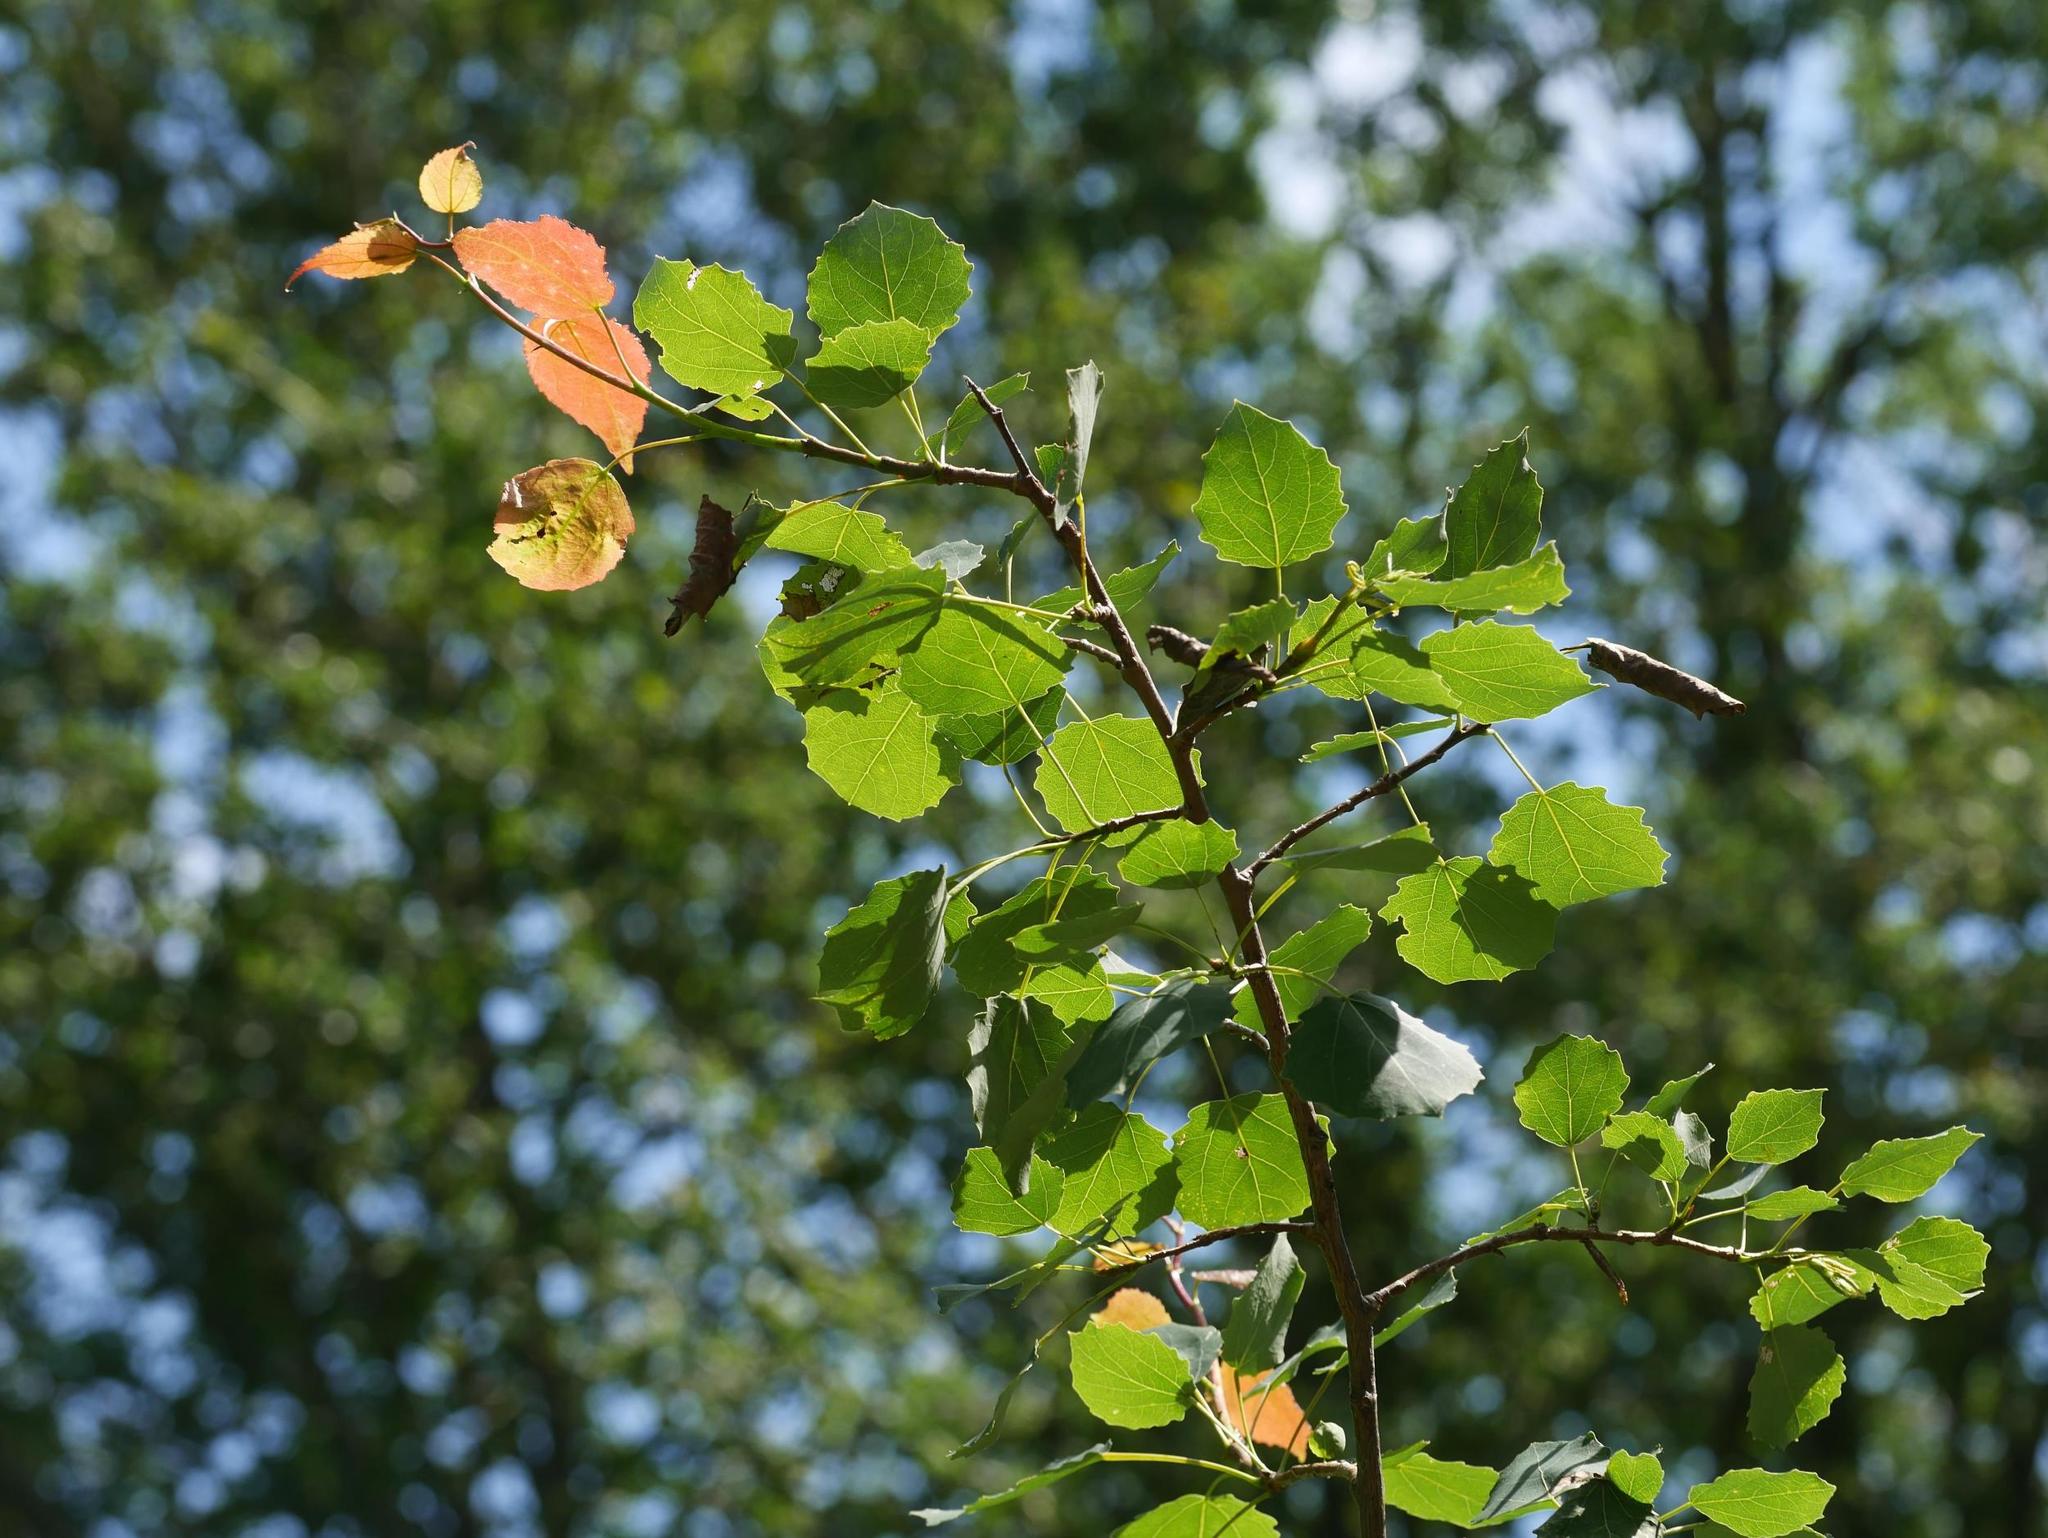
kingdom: Plantae
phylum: Tracheophyta
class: Magnoliopsida
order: Malpighiales
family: Salicaceae
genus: Populus
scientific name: Populus tremula
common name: European aspen
